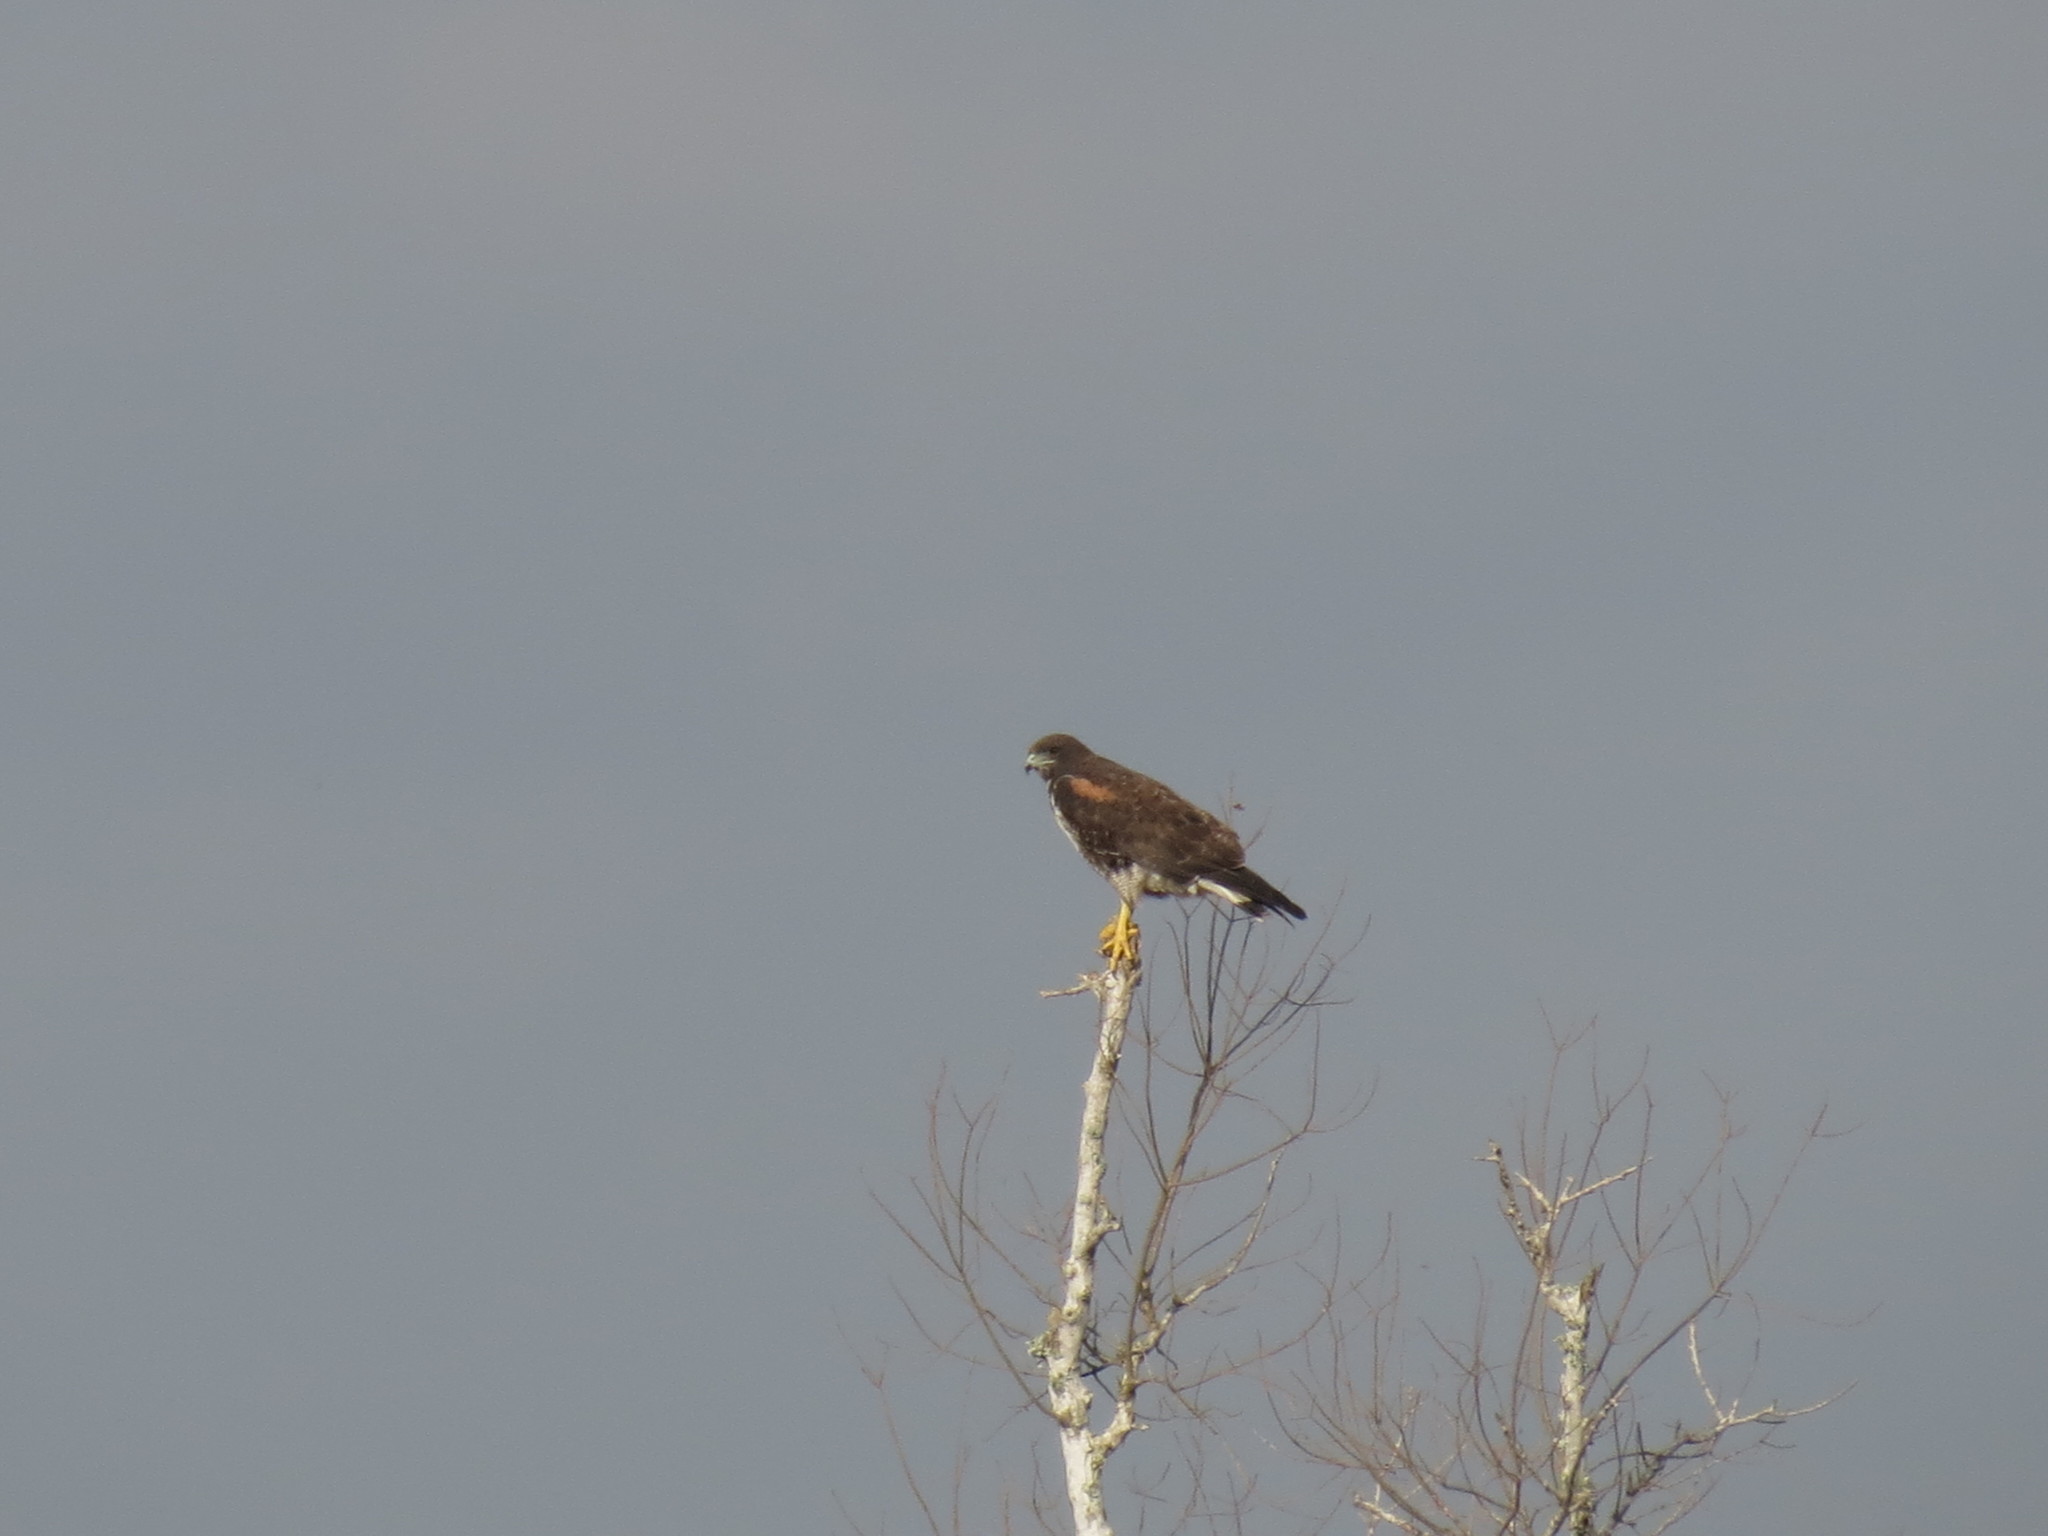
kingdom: Animalia
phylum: Chordata
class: Aves
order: Accipitriformes
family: Accipitridae
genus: Buteo
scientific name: Buteo albicaudatus
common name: White-tailed hawk
